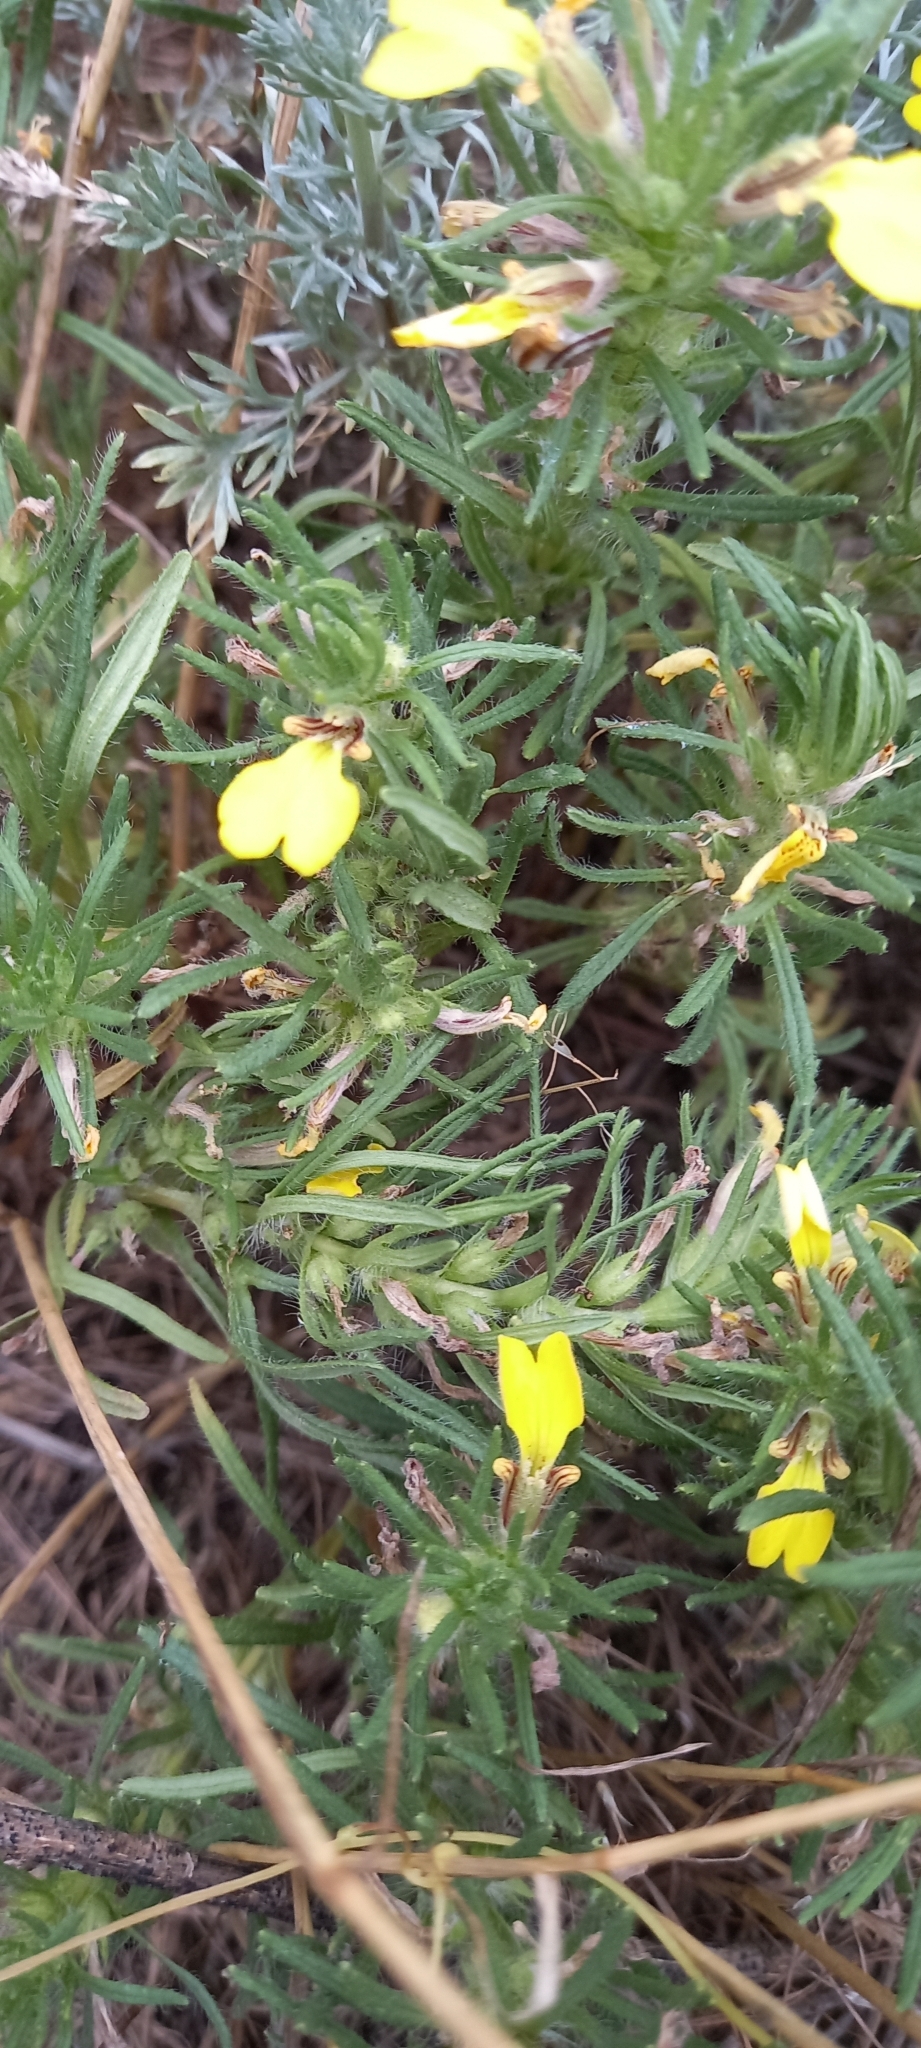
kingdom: Plantae
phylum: Tracheophyta
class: Magnoliopsida
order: Lamiales
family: Lamiaceae
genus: Ajuga
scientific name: Ajuga chamaepitys
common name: Ground-pine
